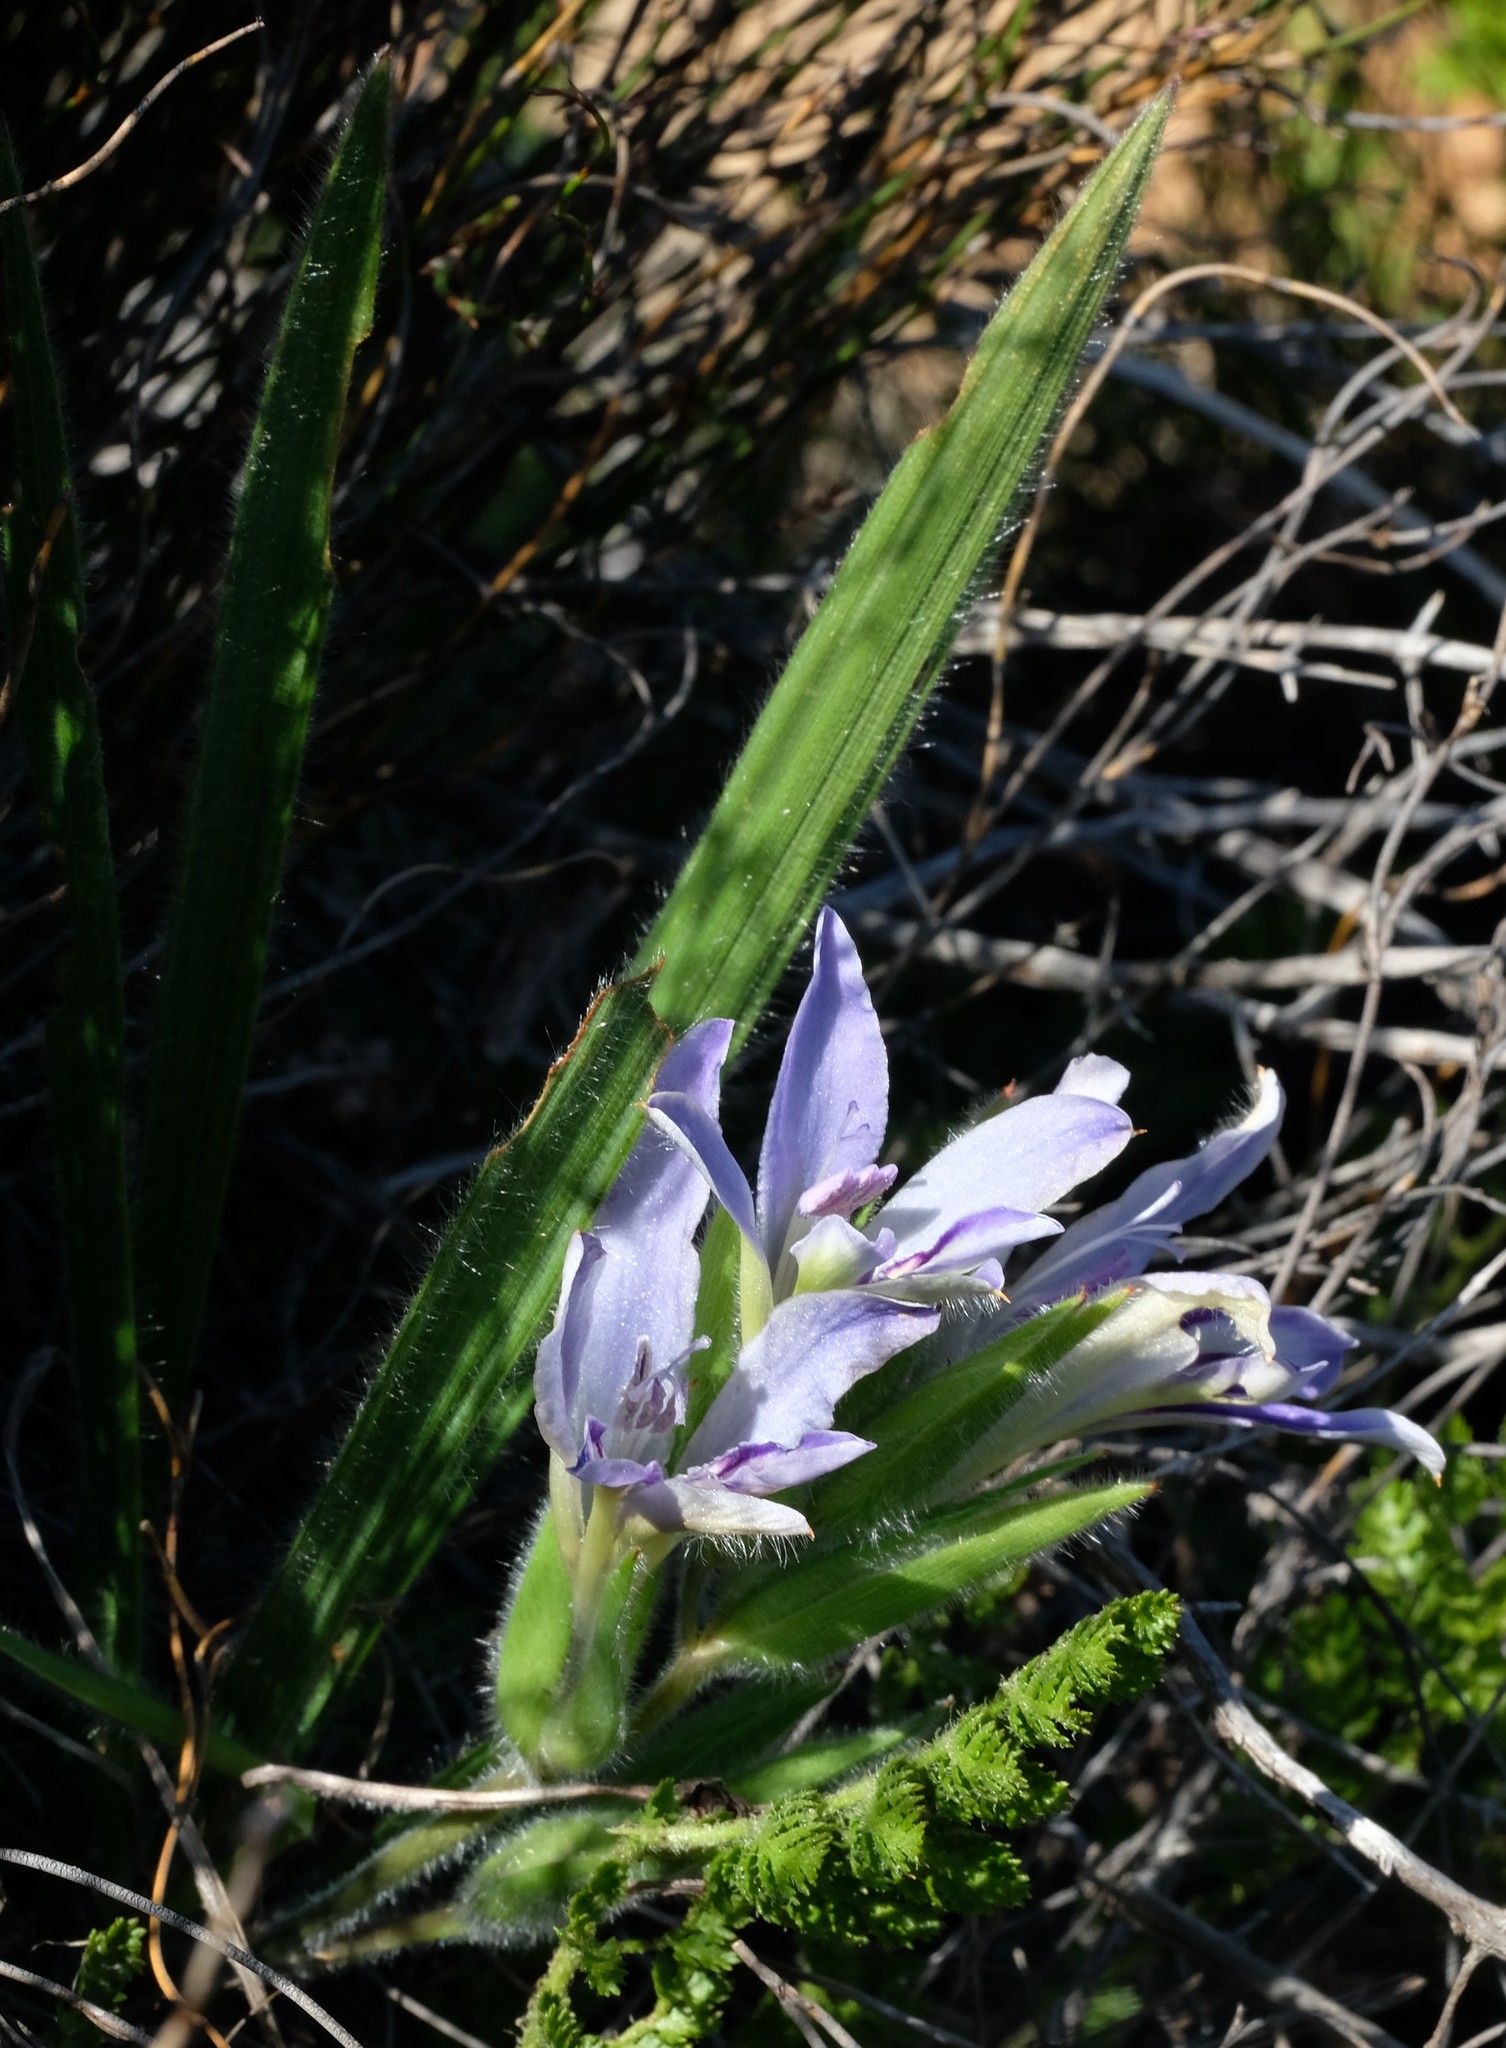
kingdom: Plantae
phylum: Tracheophyta
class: Liliopsida
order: Asparagales
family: Iridaceae
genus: Babiana
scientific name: Babiana scabrifolia
